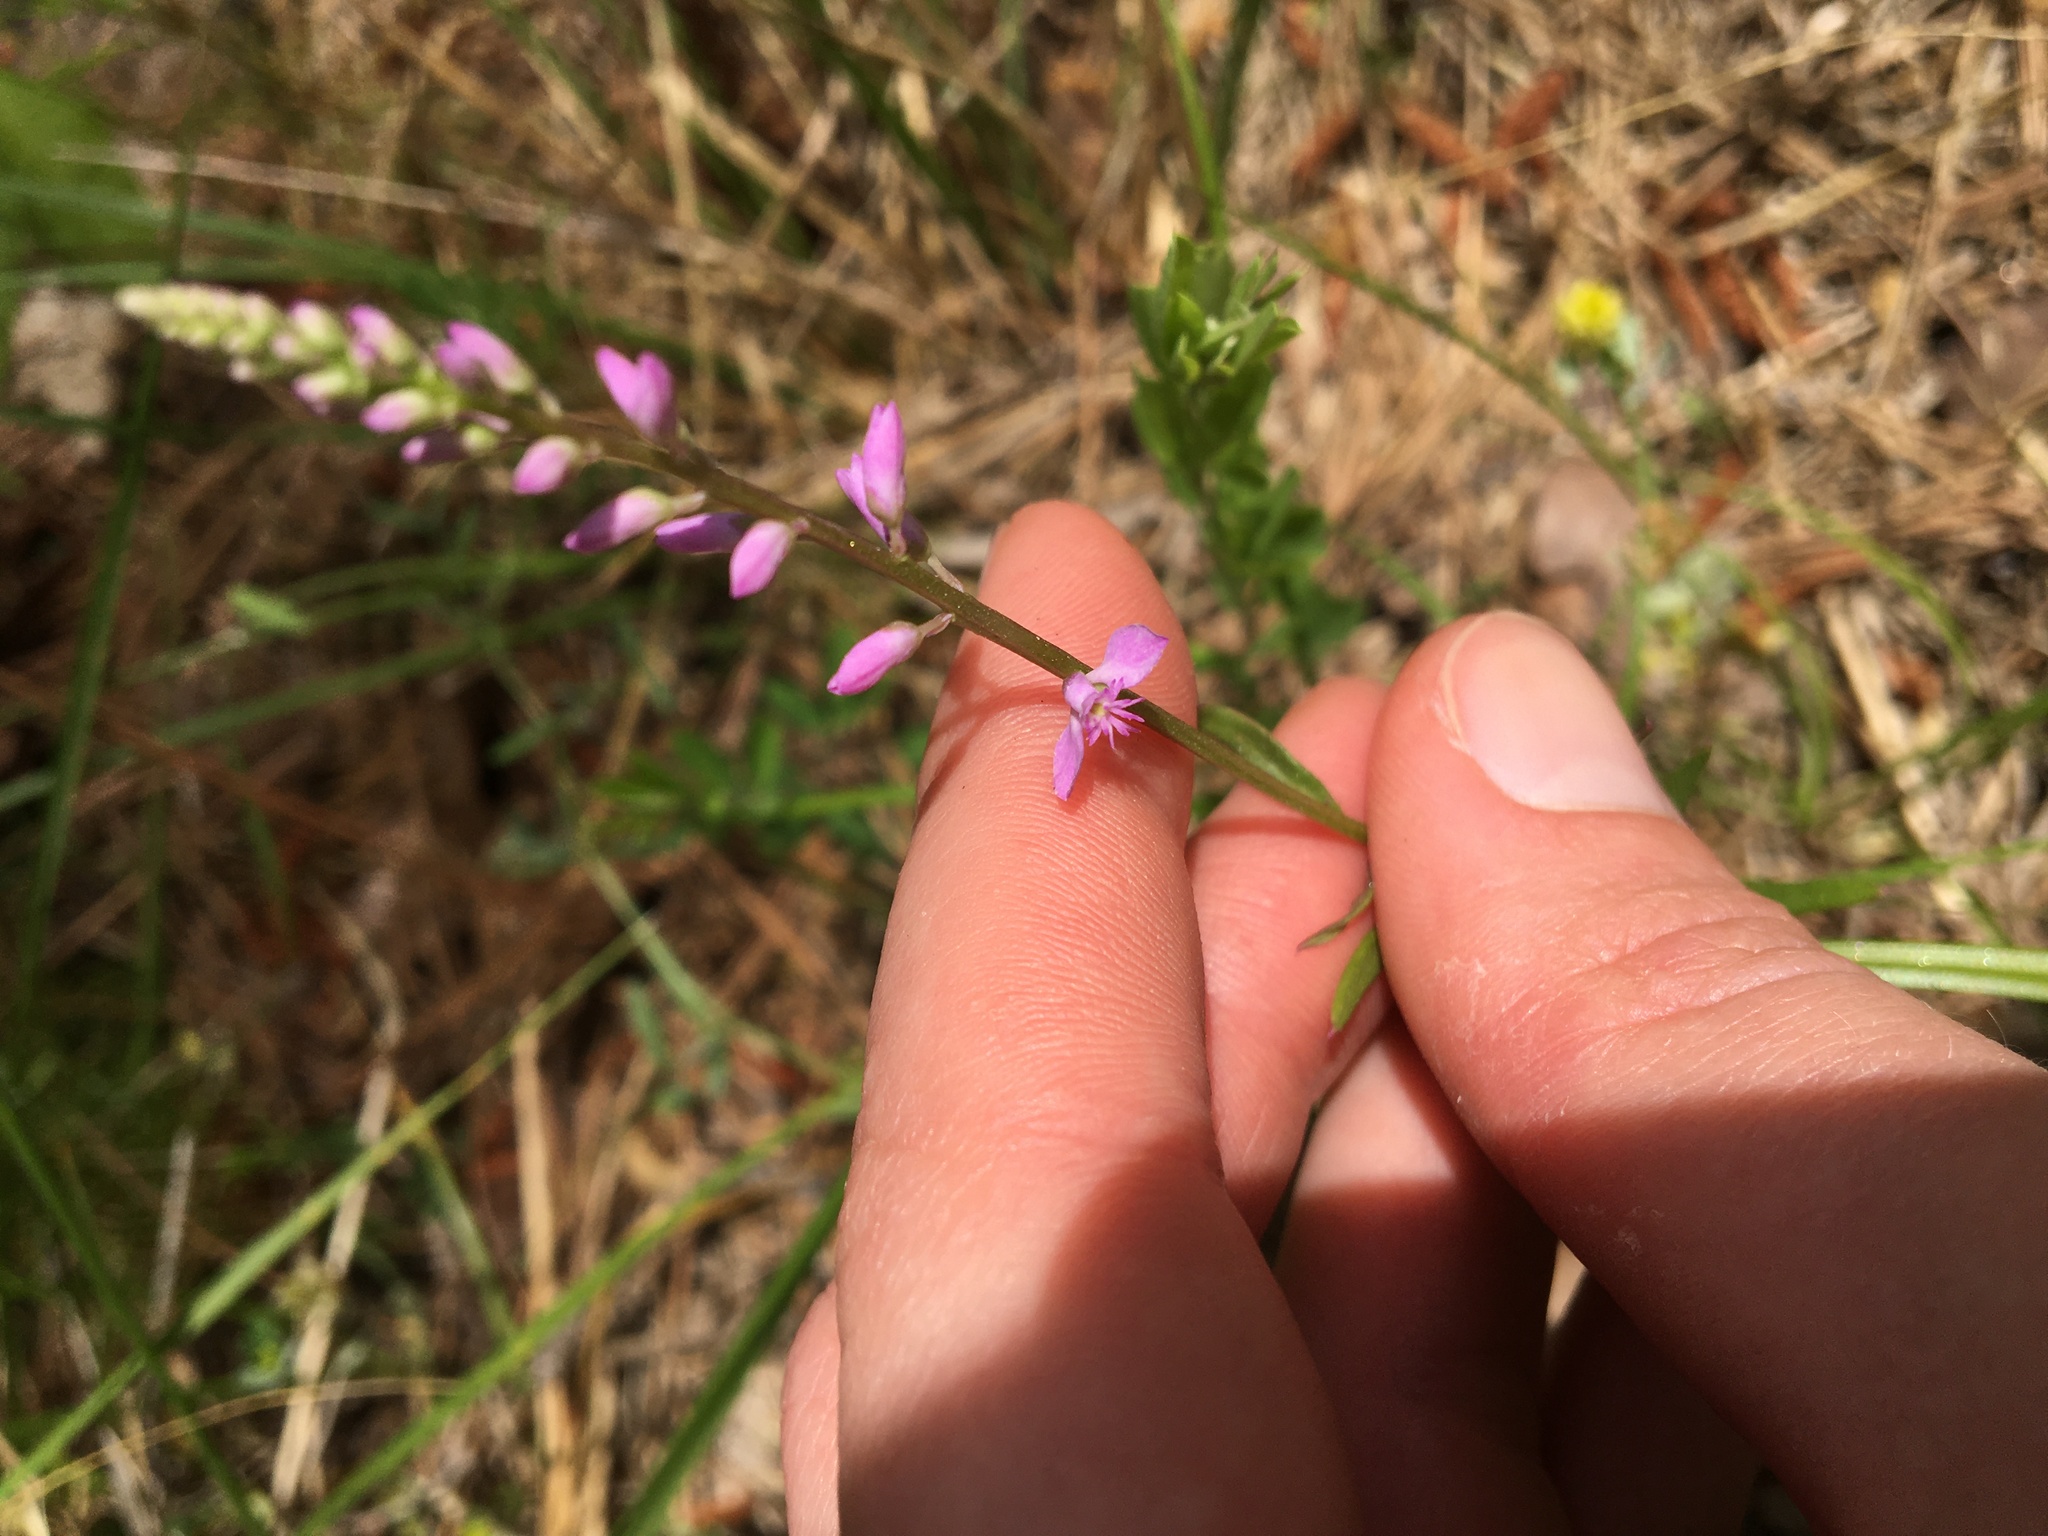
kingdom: Plantae
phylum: Tracheophyta
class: Magnoliopsida
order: Fabales
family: Polygalaceae
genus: Polygala
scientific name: Polygala polygama
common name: Bitter milkwort
